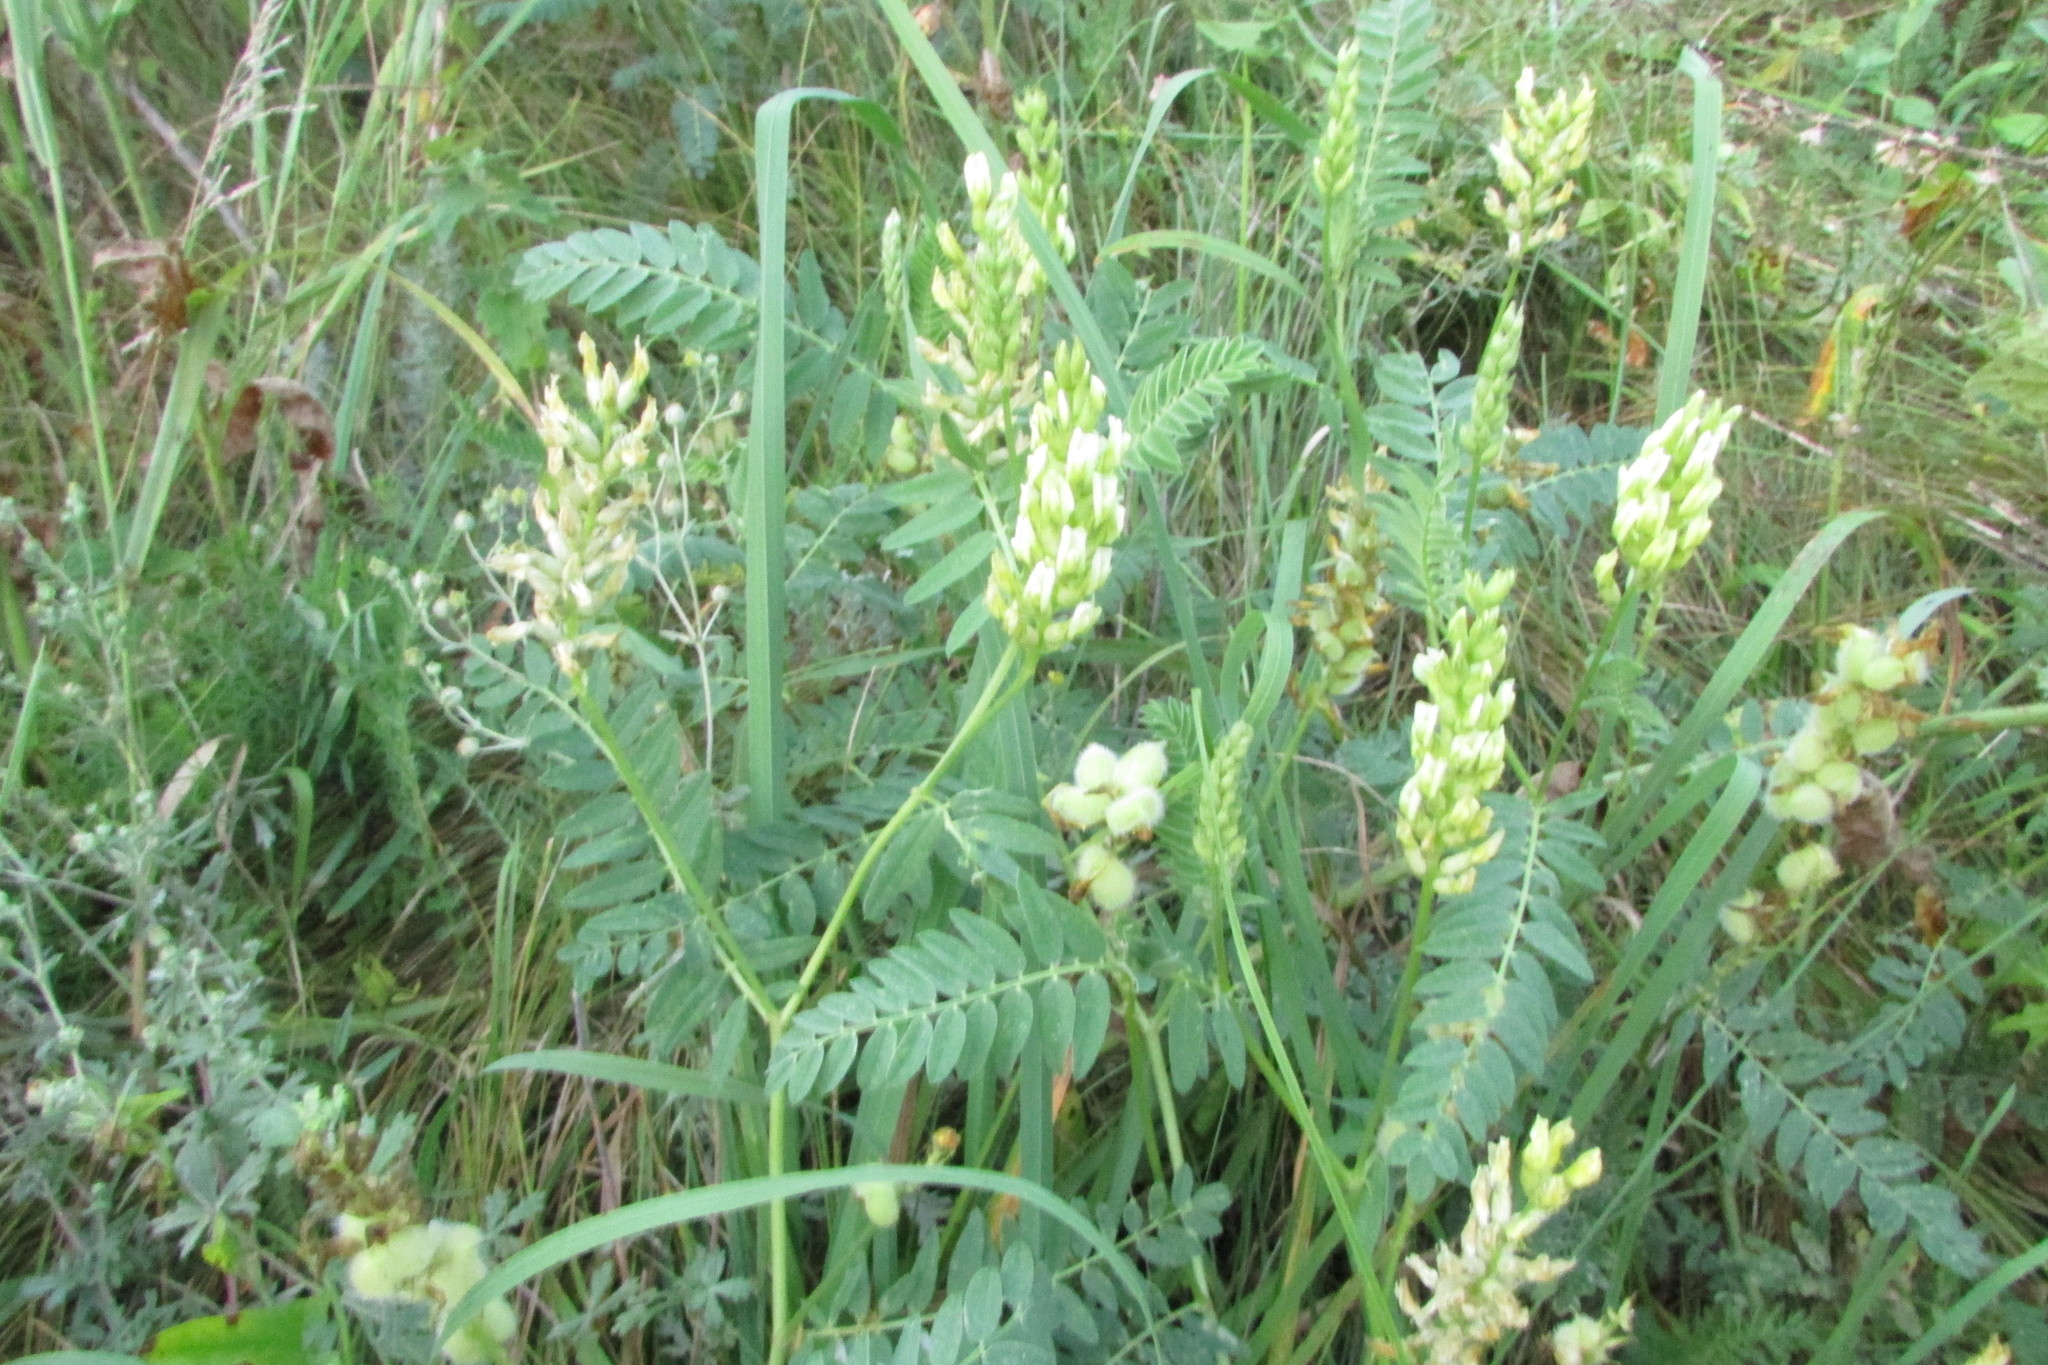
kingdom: Plantae
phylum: Tracheophyta
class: Magnoliopsida
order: Fabales
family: Fabaceae
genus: Astragalus
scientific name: Astragalus cicer
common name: Chick-pea milk-vetch
